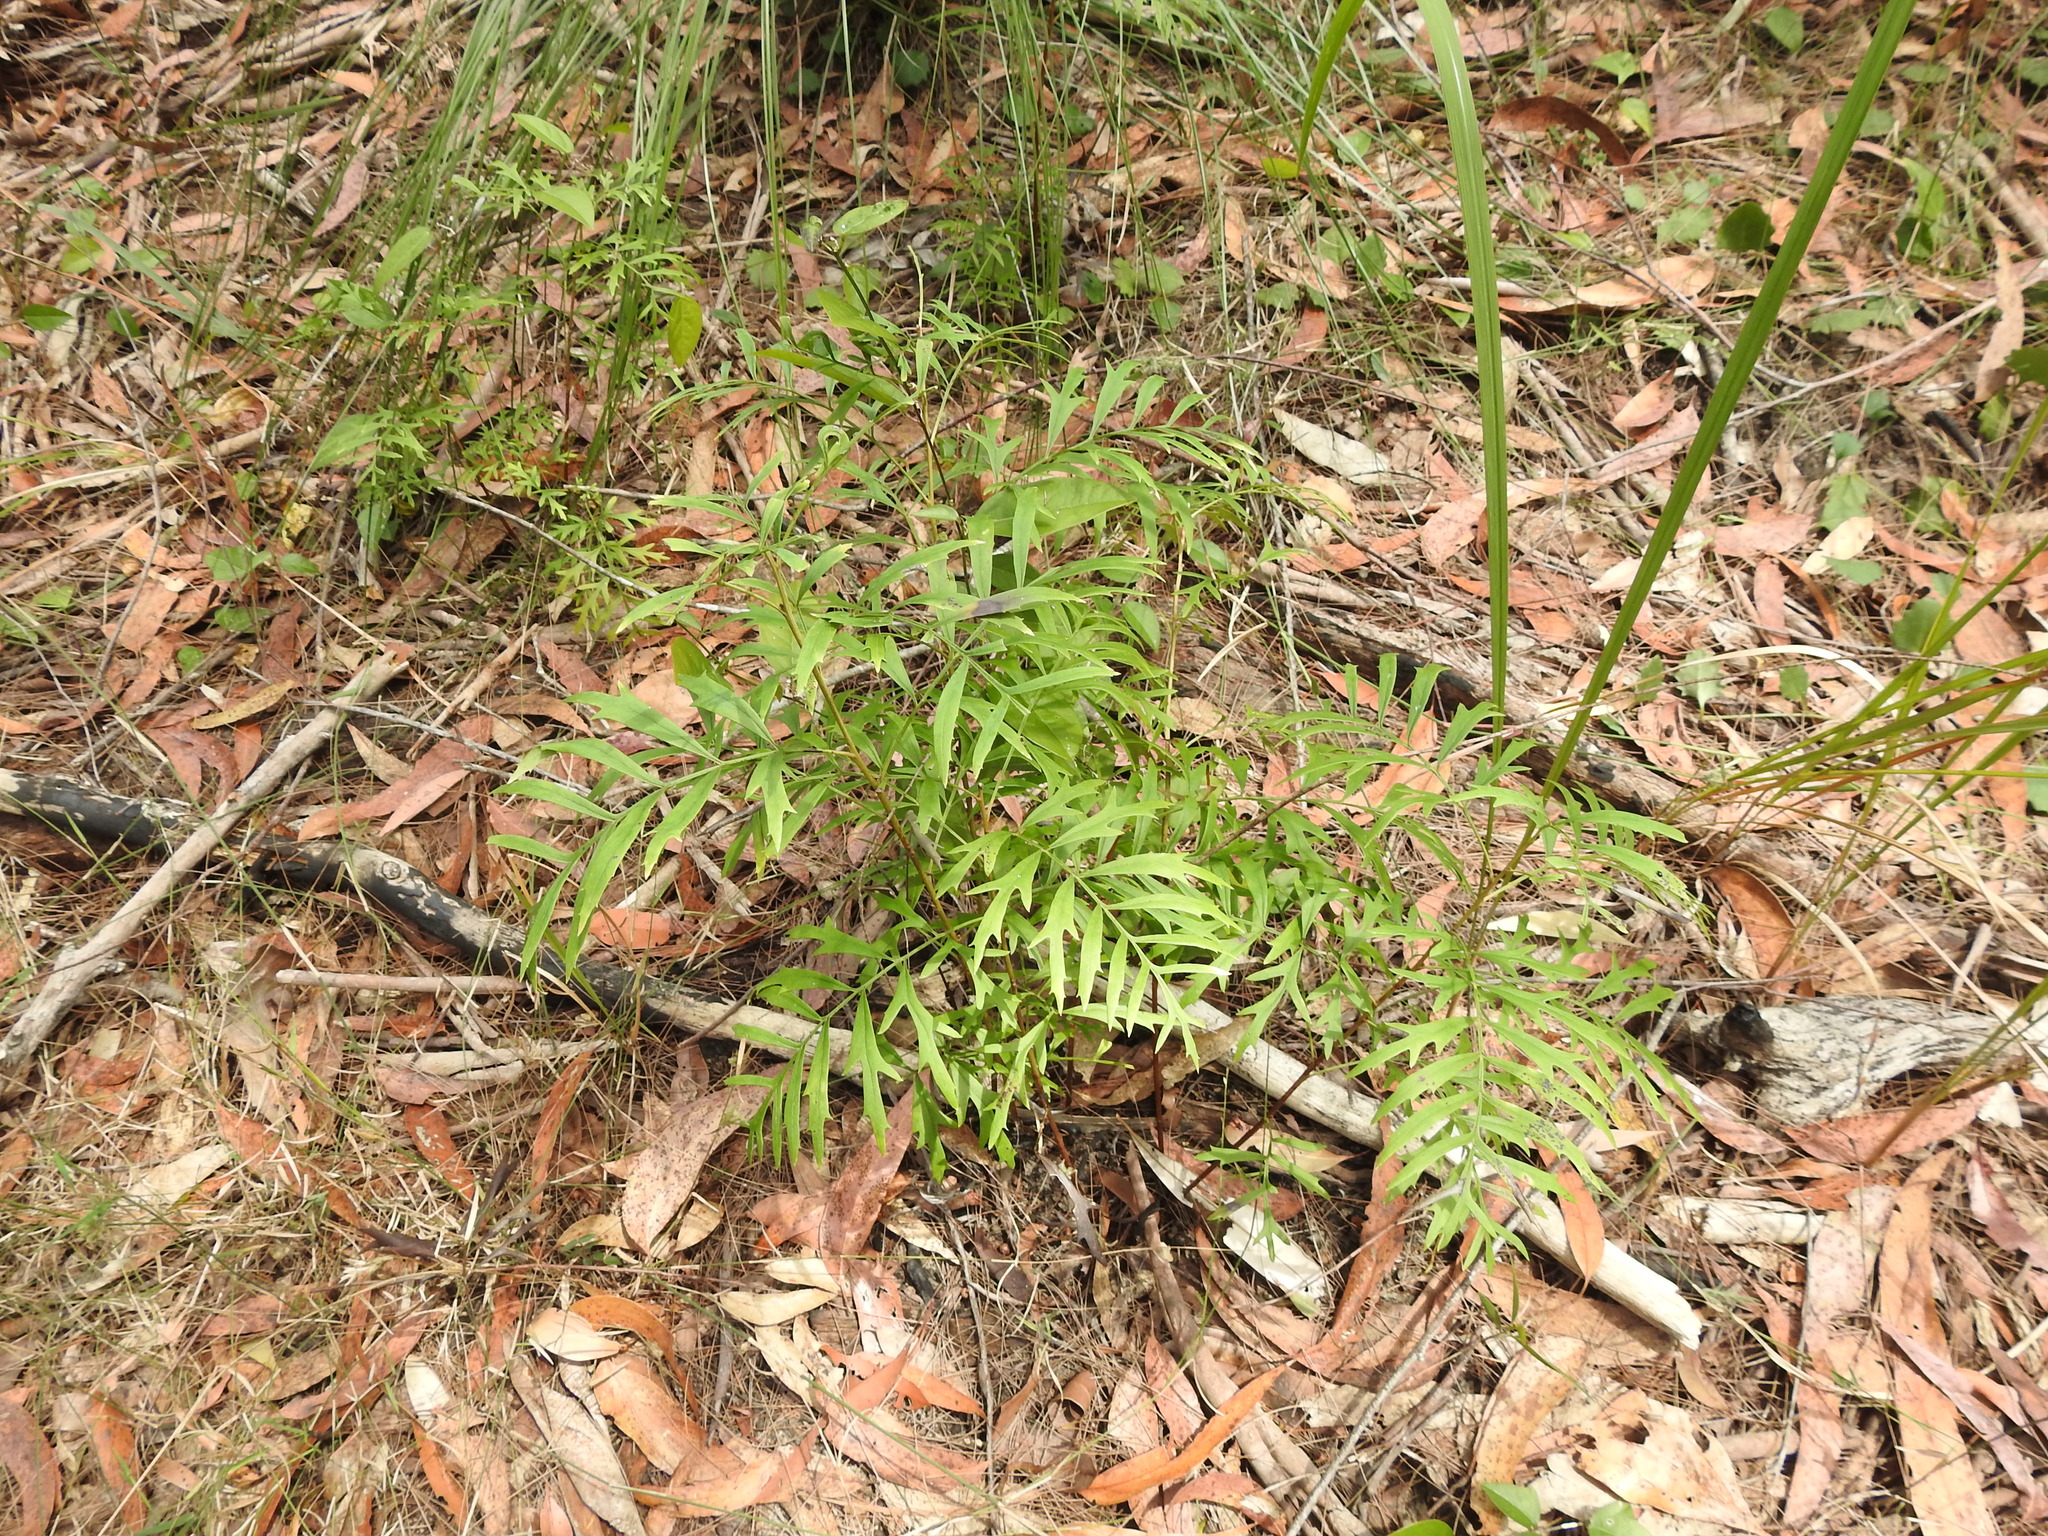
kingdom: Plantae
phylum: Tracheophyta
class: Magnoliopsida
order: Proteales
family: Proteaceae
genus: Lomatia
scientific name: Lomatia silaifolia
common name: Crinklebush
